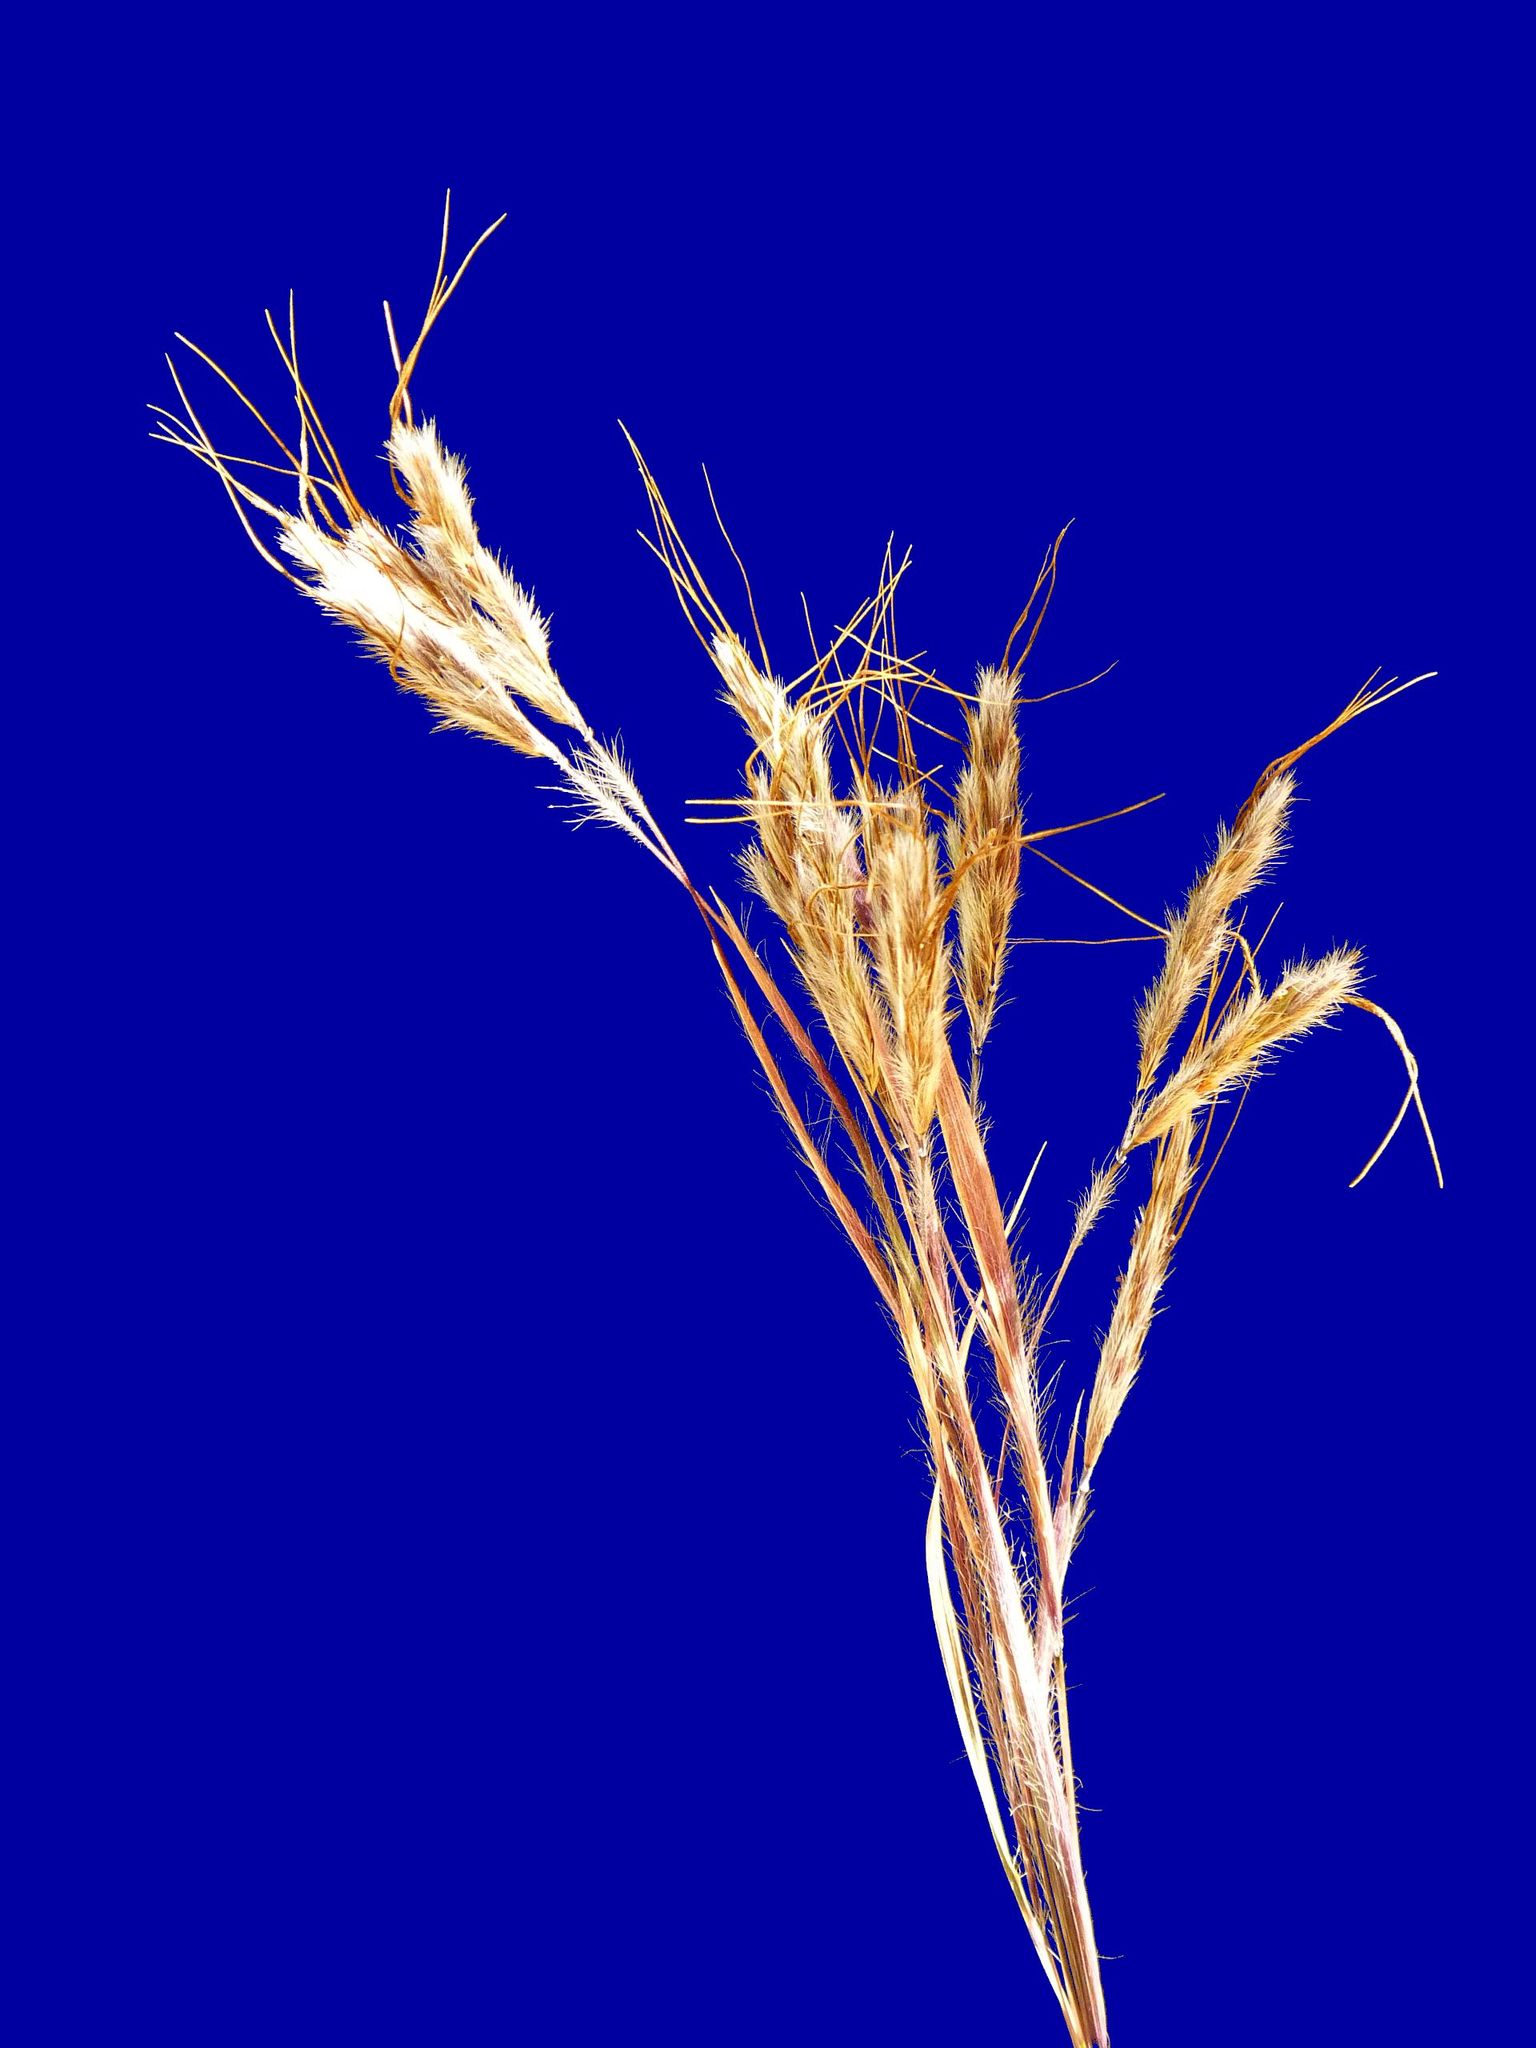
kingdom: Plantae
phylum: Tracheophyta
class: Liliopsida
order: Poales
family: Poaceae
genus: Hyparrhenia
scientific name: Hyparrhenia hirta
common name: Thatching grass
